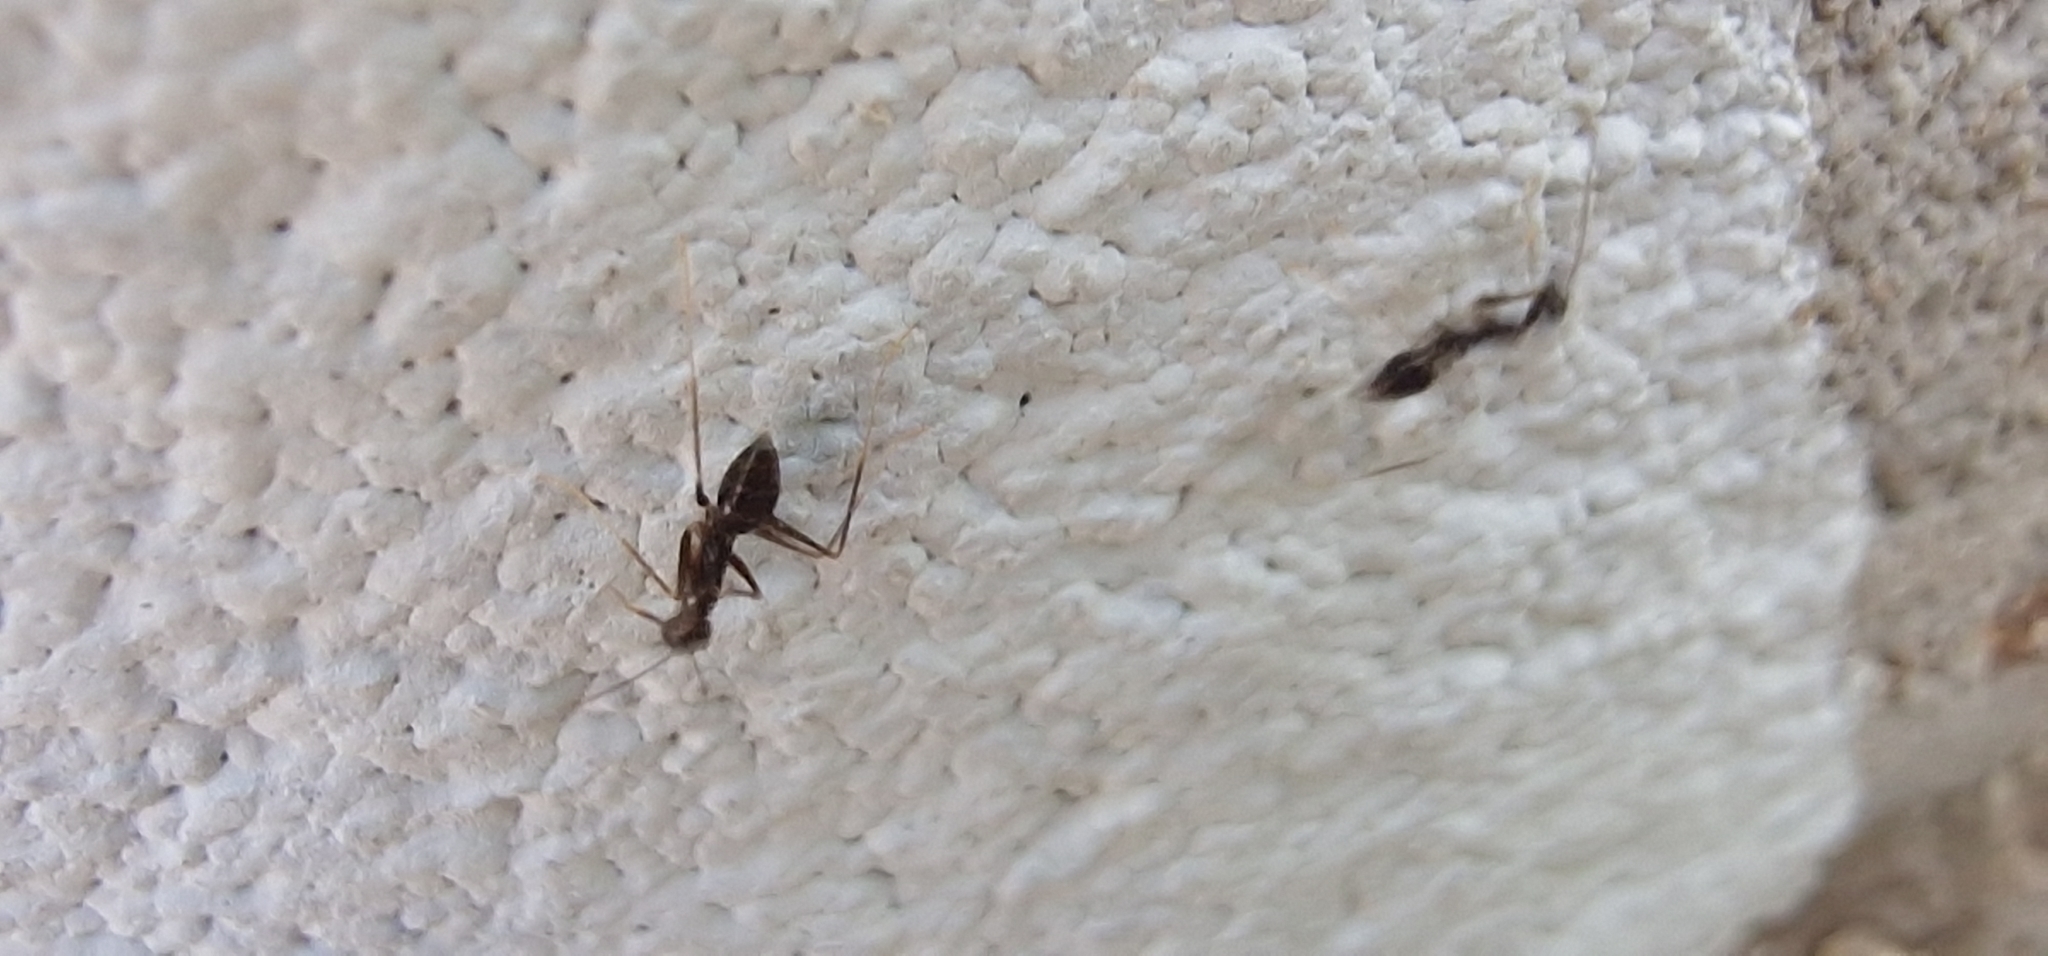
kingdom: Animalia
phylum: Arthropoda
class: Insecta
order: Hymenoptera
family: Formicidae
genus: Paratrechina
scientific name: Paratrechina longicornis
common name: Longhorned crazy ant
